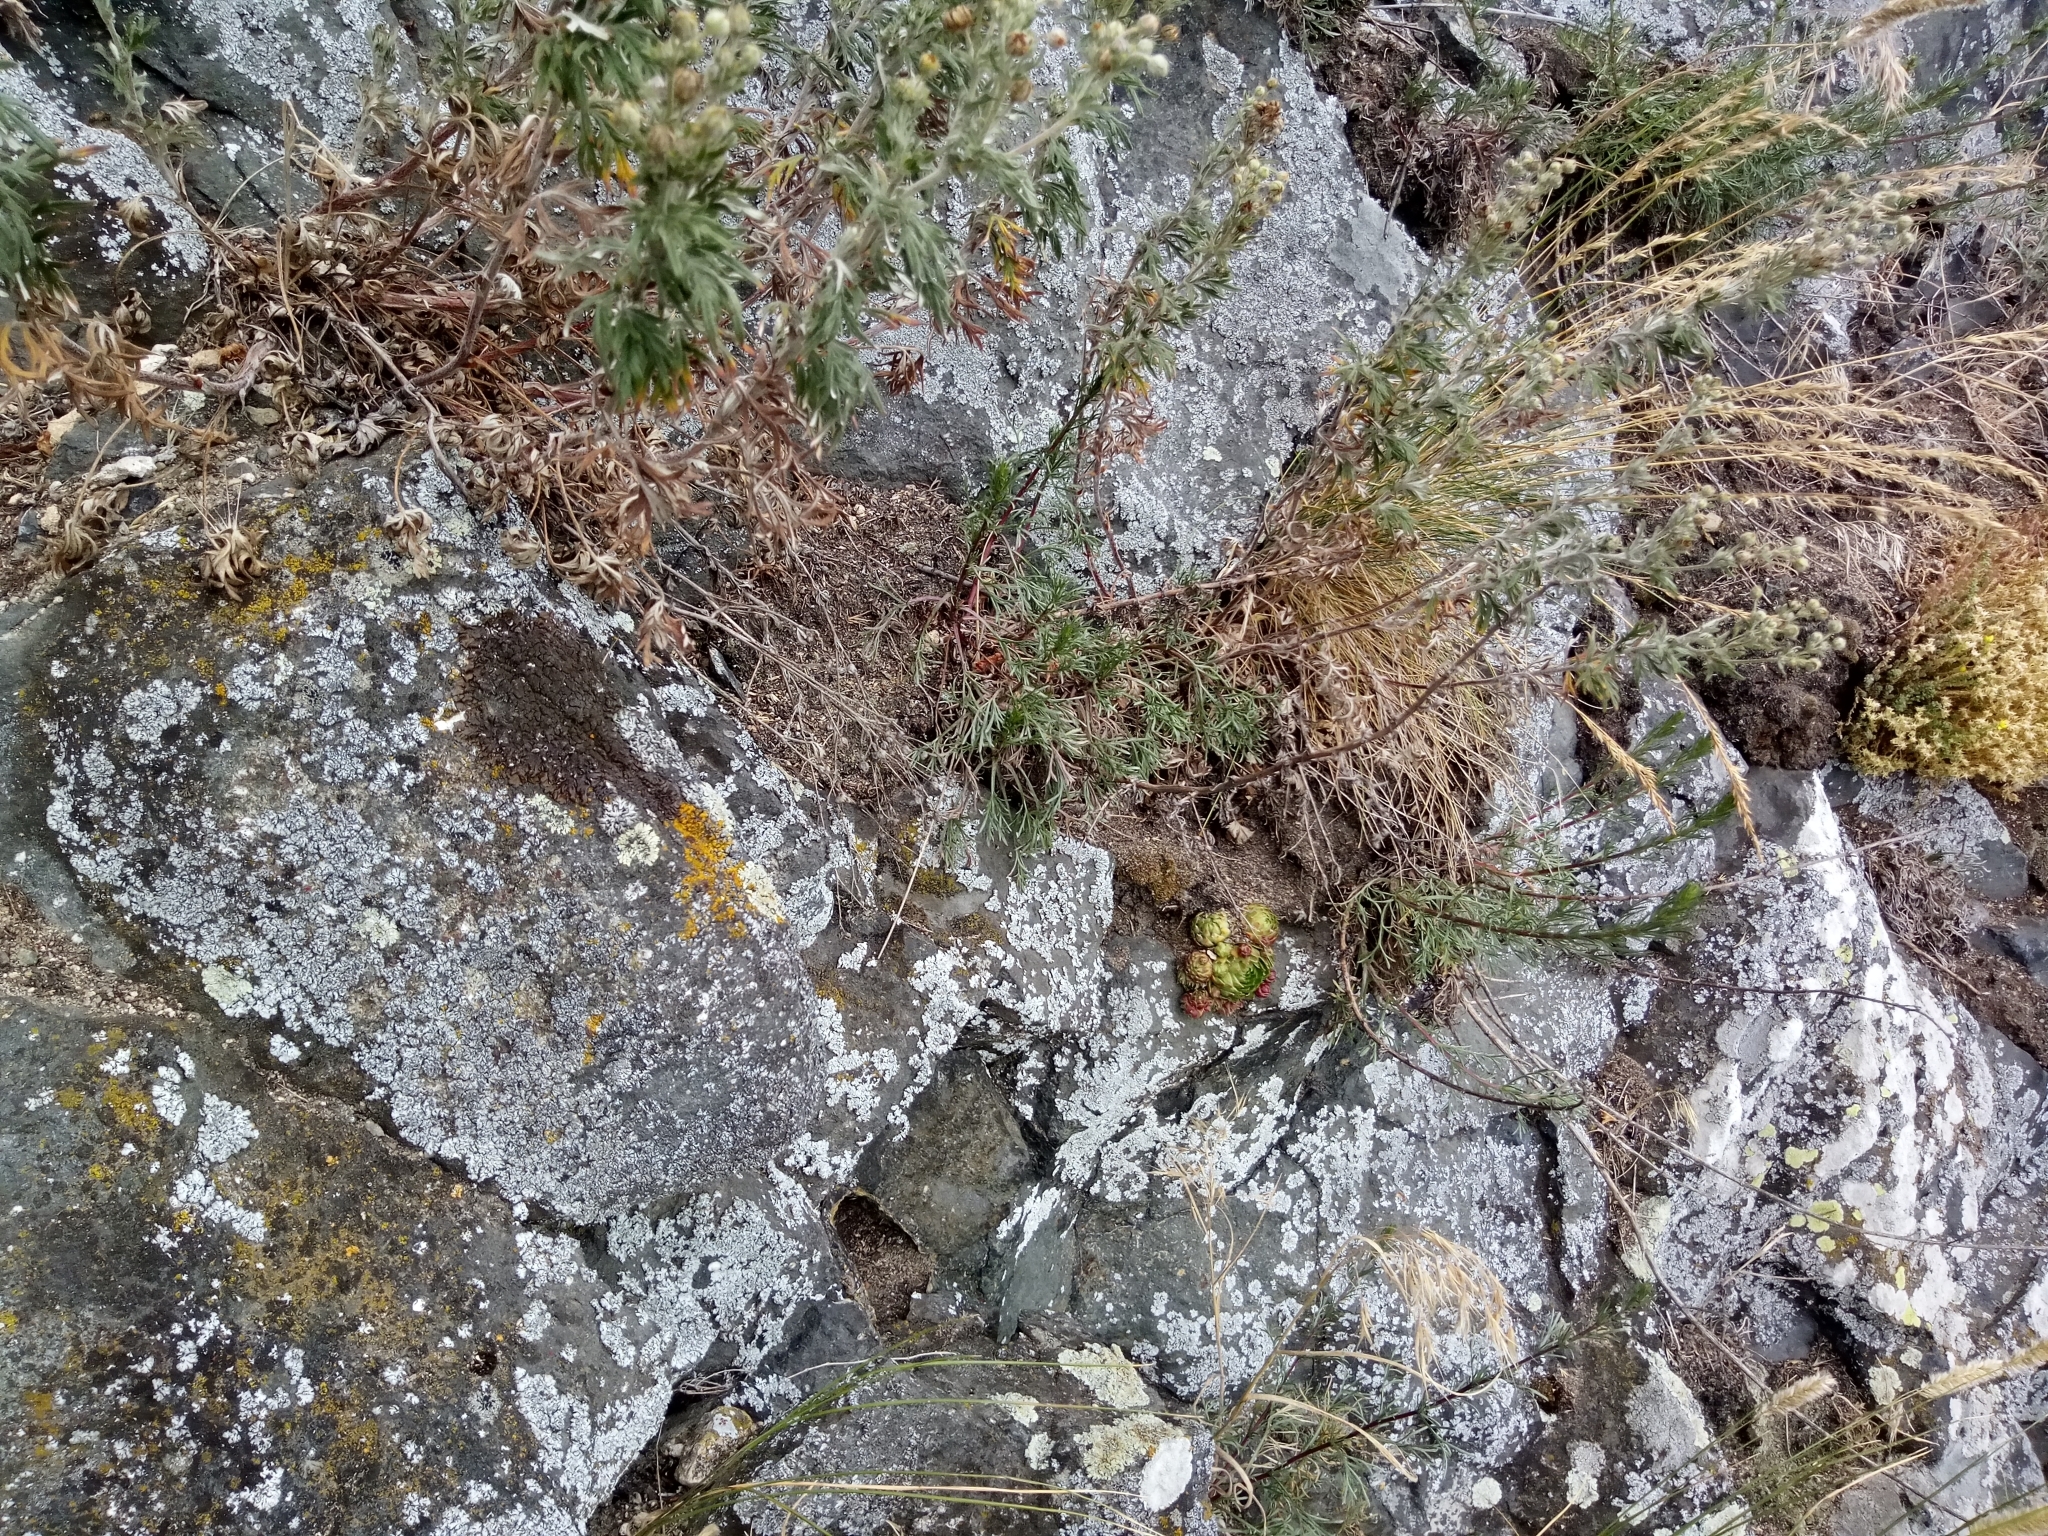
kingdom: Plantae
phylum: Tracheophyta
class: Magnoliopsida
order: Saxifragales
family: Crassulaceae
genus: Sempervivum
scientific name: Sempervivum globiferum
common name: Rolling hen-and-chicks
